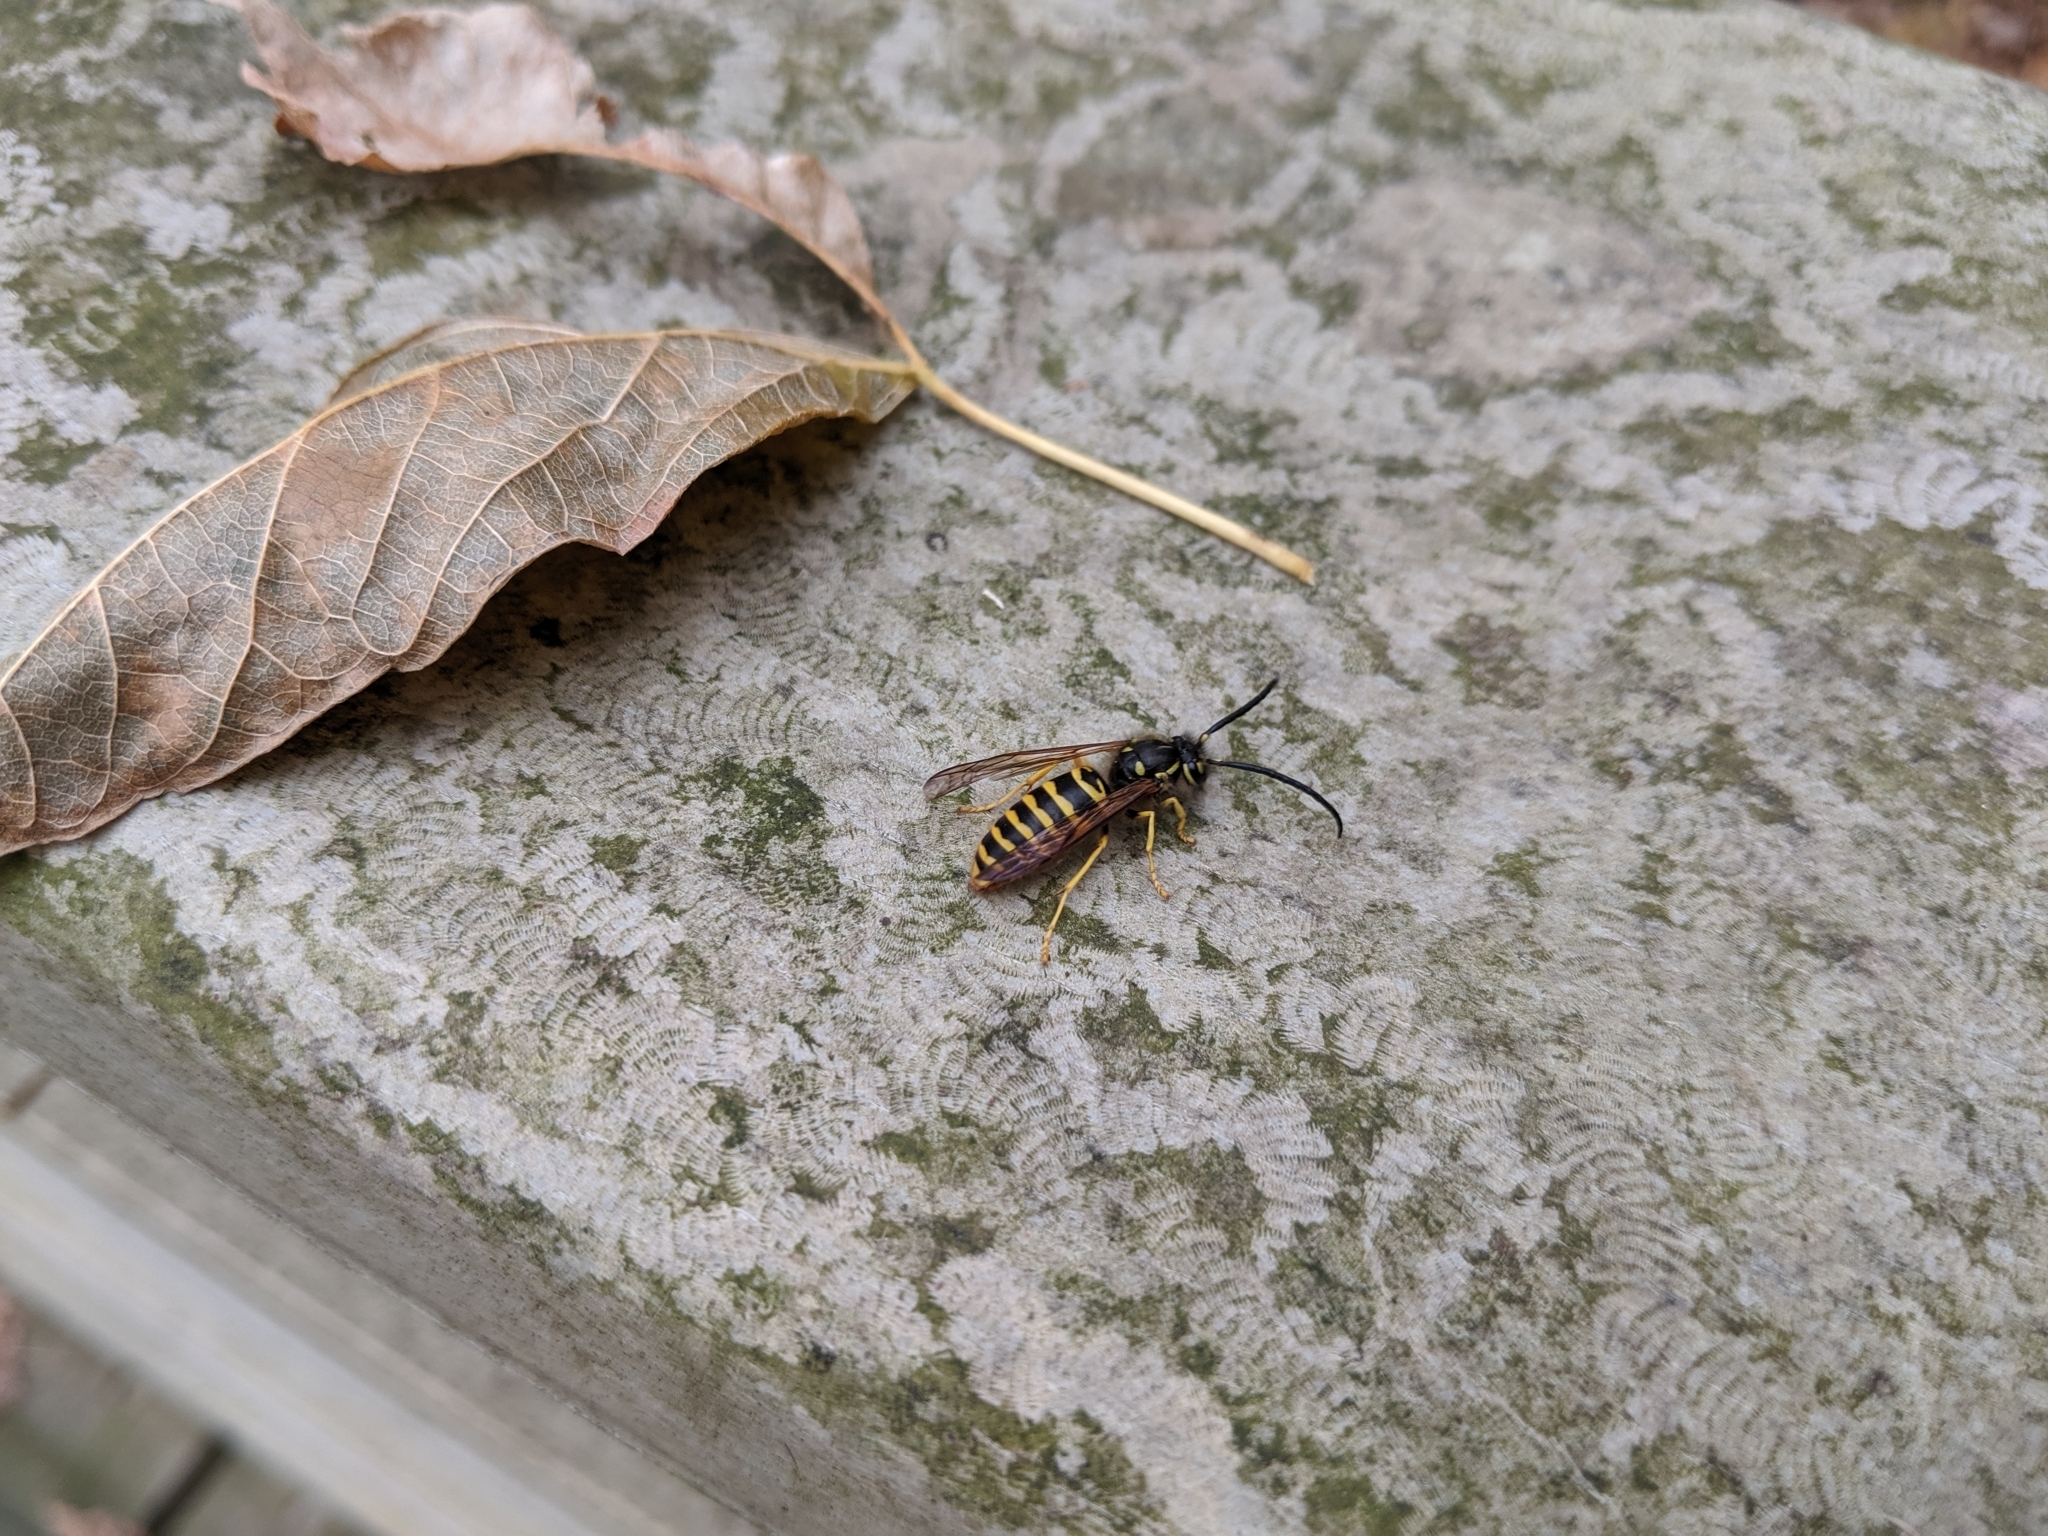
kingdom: Animalia
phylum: Arthropoda
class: Insecta
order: Hymenoptera
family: Vespidae
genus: Vespula
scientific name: Vespula maculifrons
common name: Eastern yellowjacket
